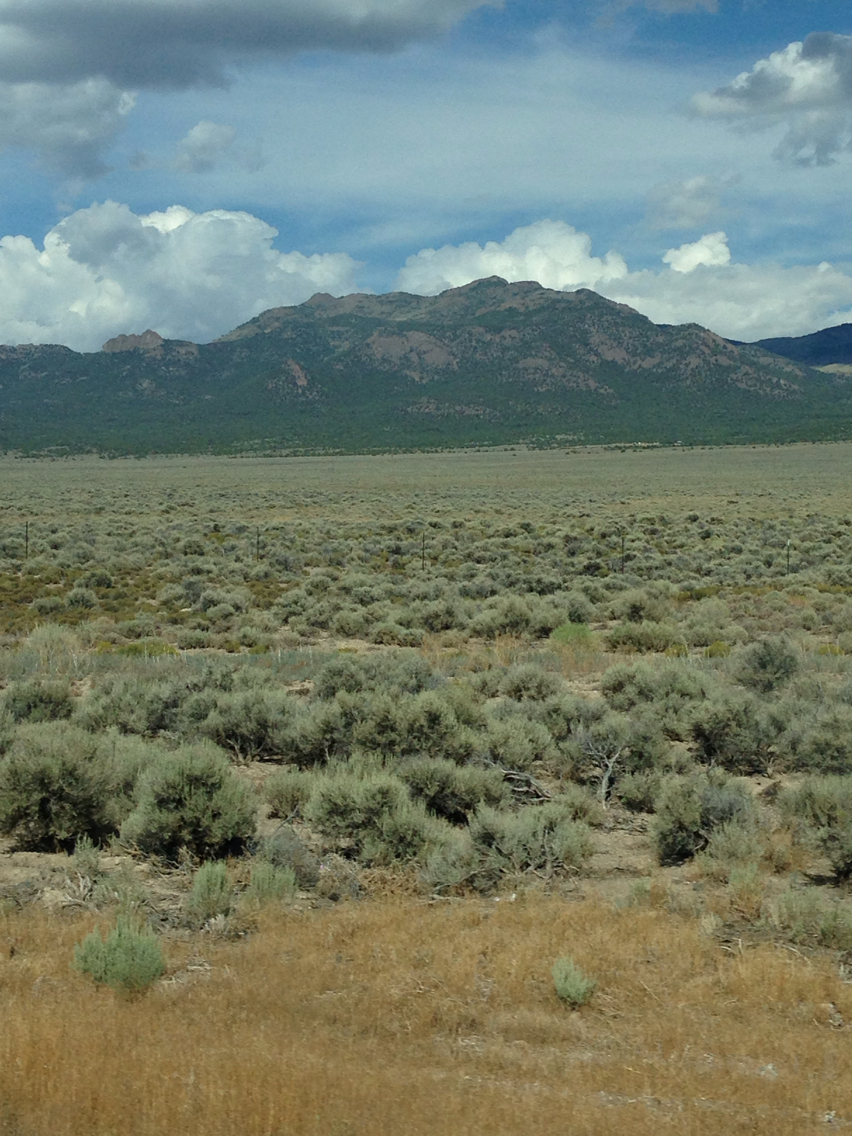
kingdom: Plantae
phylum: Tracheophyta
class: Magnoliopsida
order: Asterales
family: Asteraceae
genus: Artemisia
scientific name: Artemisia tridentata
